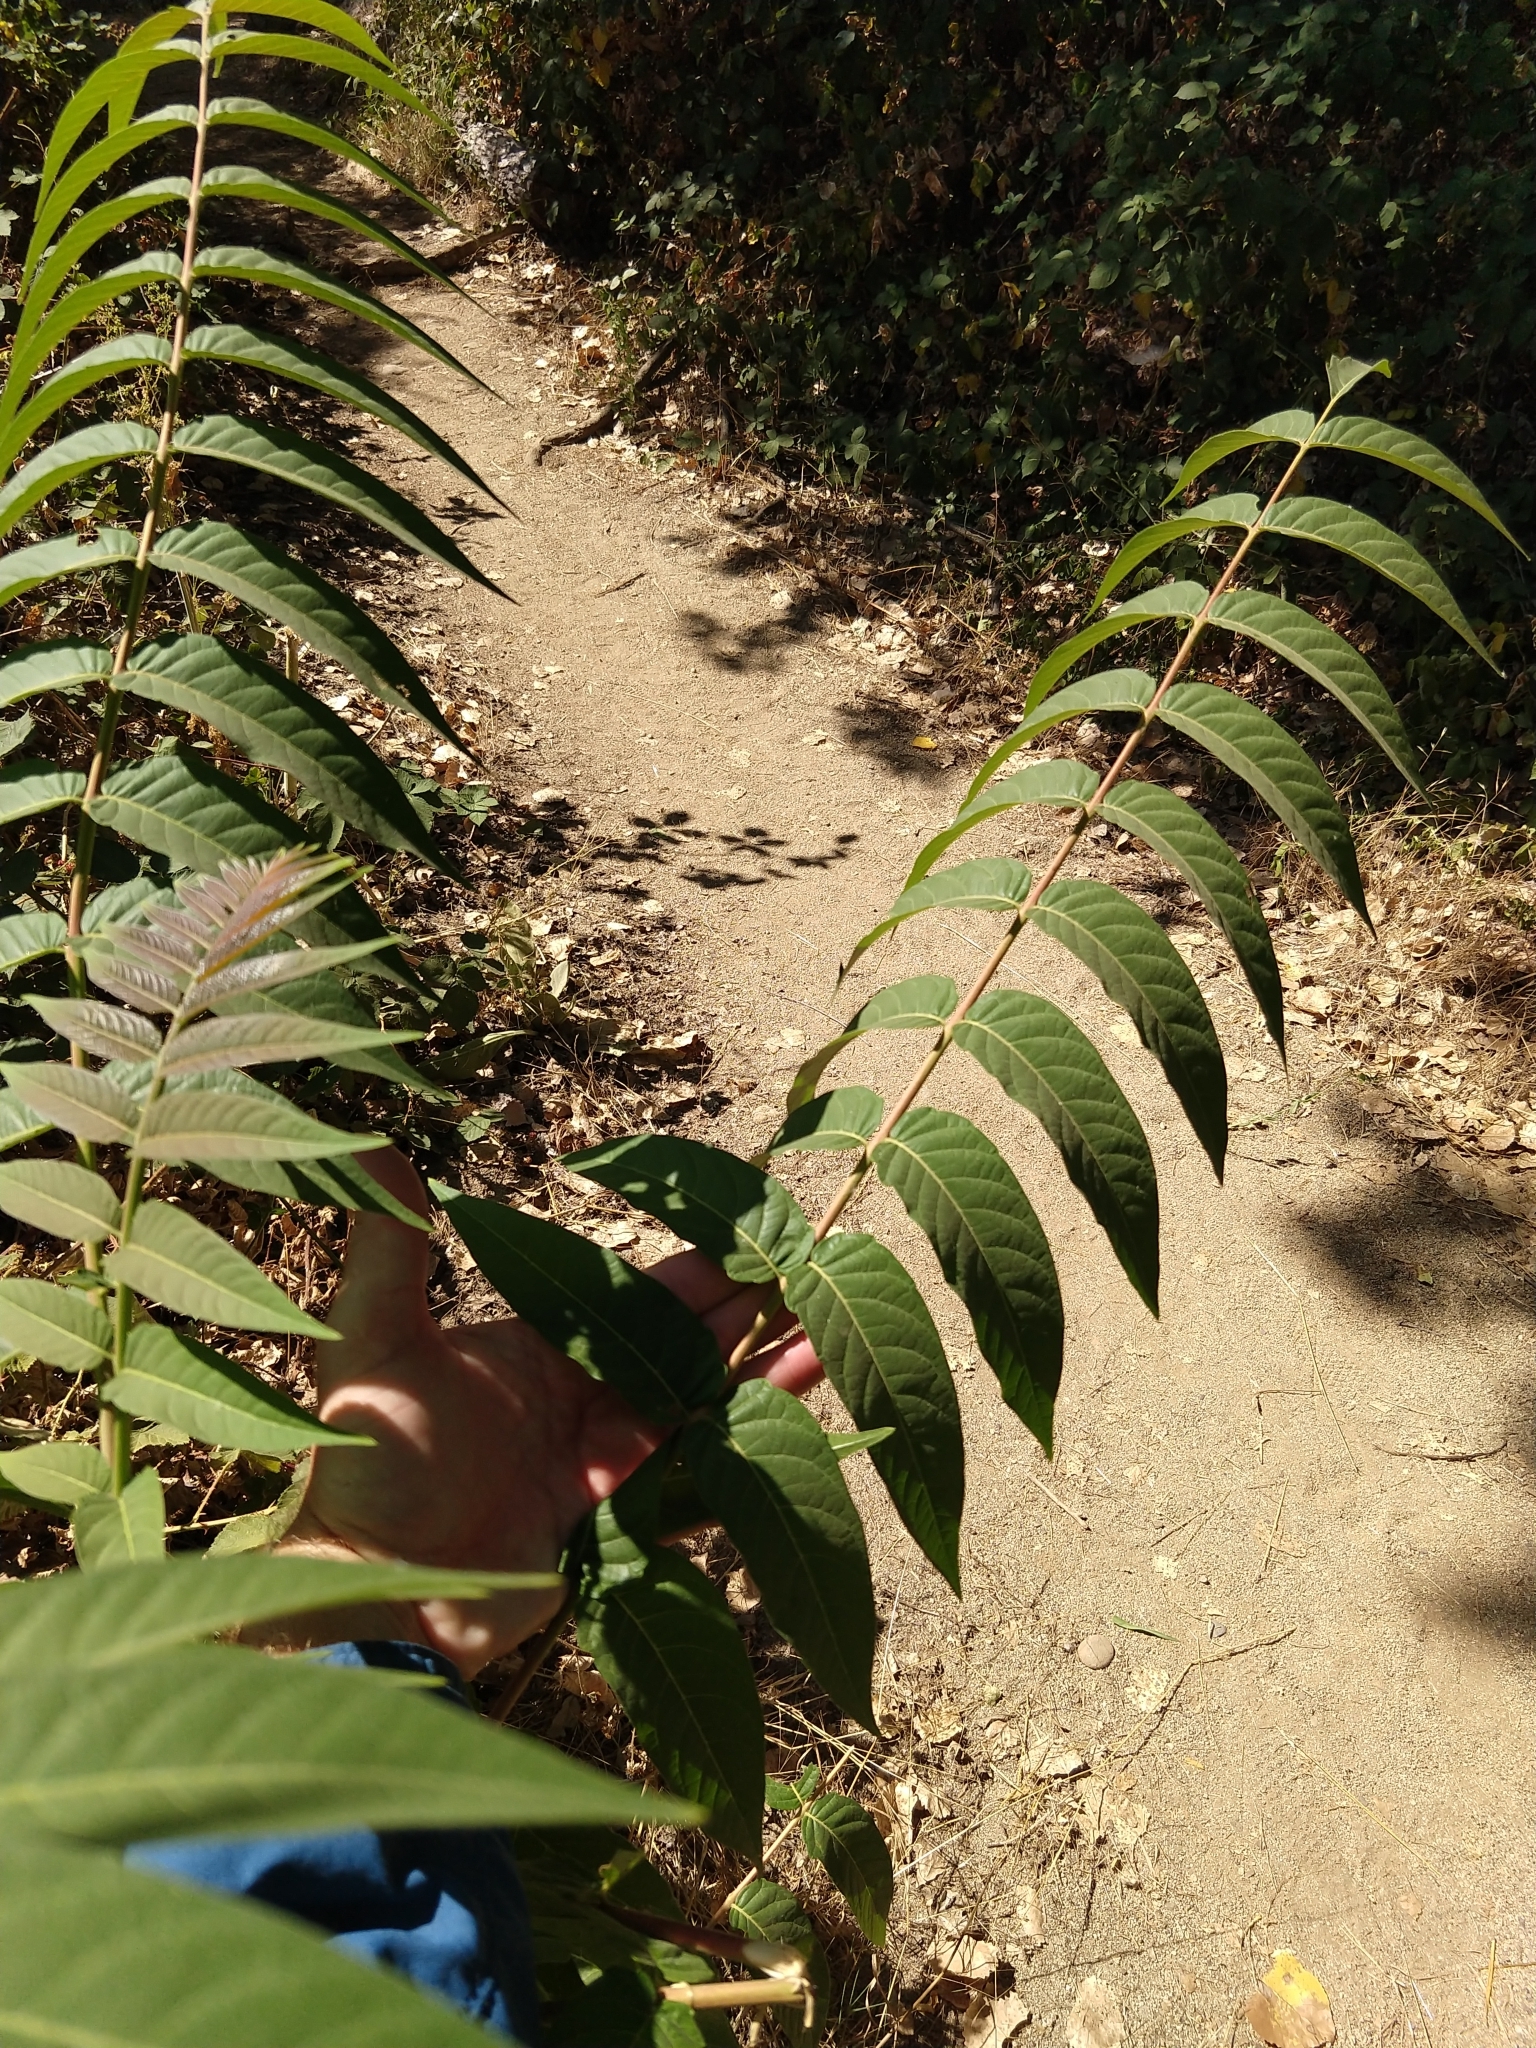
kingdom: Plantae
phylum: Tracheophyta
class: Magnoliopsida
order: Sapindales
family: Simaroubaceae
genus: Ailanthus
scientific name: Ailanthus altissima
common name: Tree-of-heaven
